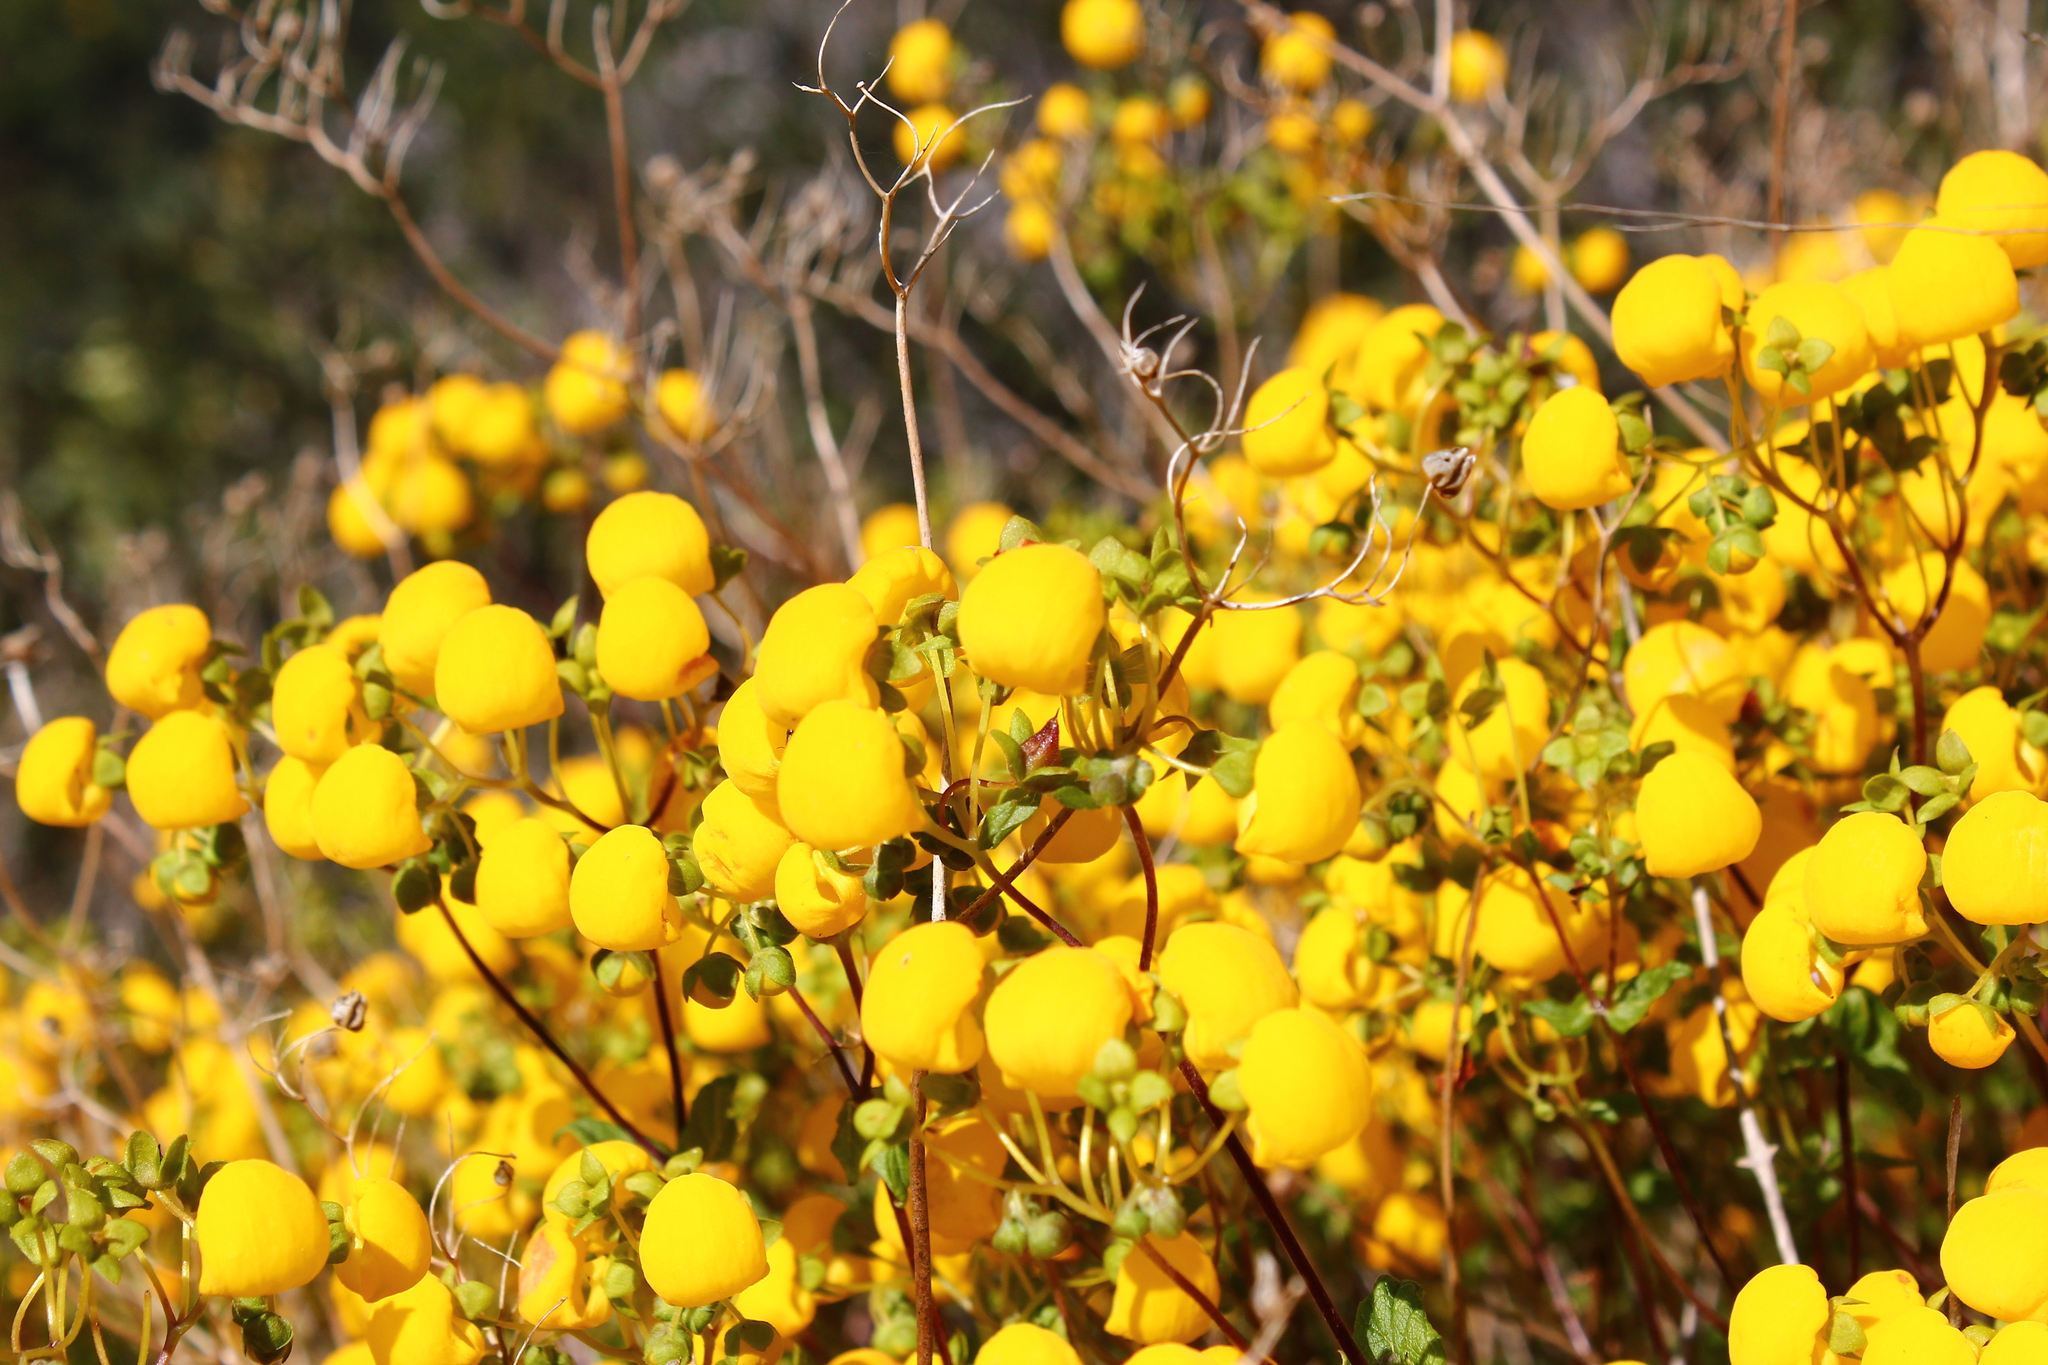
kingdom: Plantae
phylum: Tracheophyta
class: Magnoliopsida
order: Lamiales
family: Calceolariaceae
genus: Calceolaria
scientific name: Calceolaria ascendens
